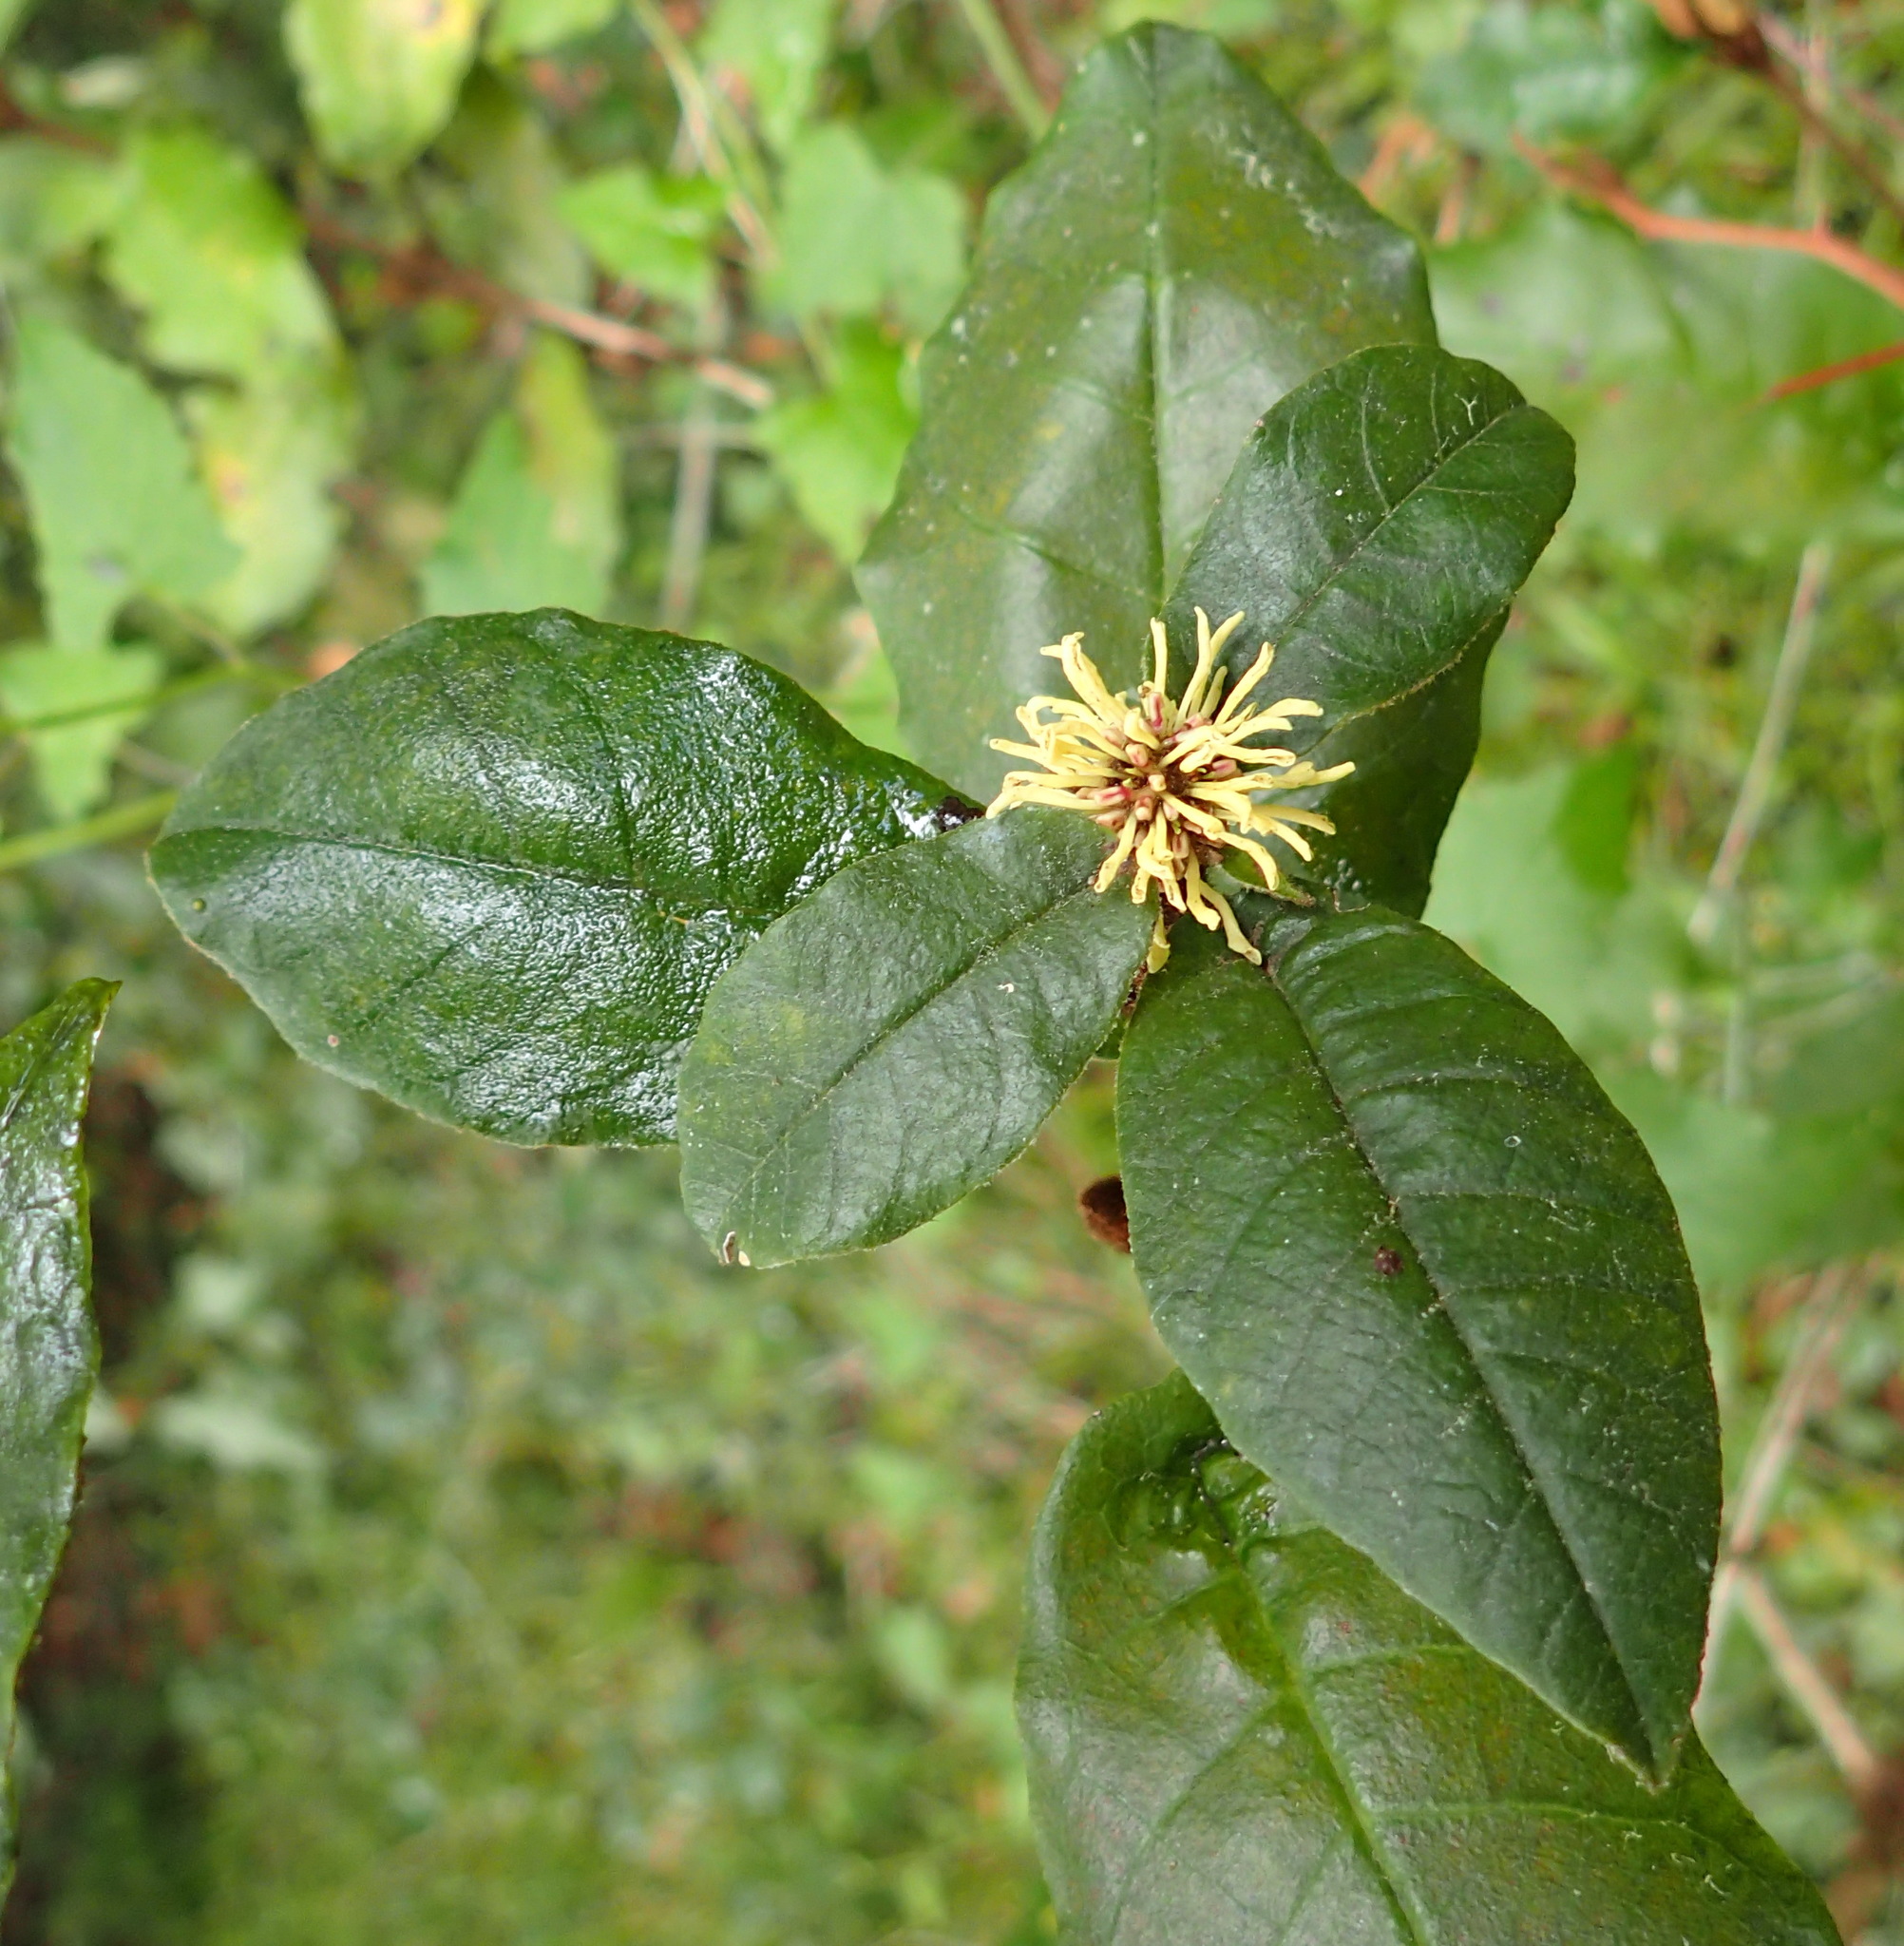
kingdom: Plantae
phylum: Tracheophyta
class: Magnoliopsida
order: Saxifragales
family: Hamamelidaceae
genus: Trichocladus
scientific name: Trichocladus crinitus
